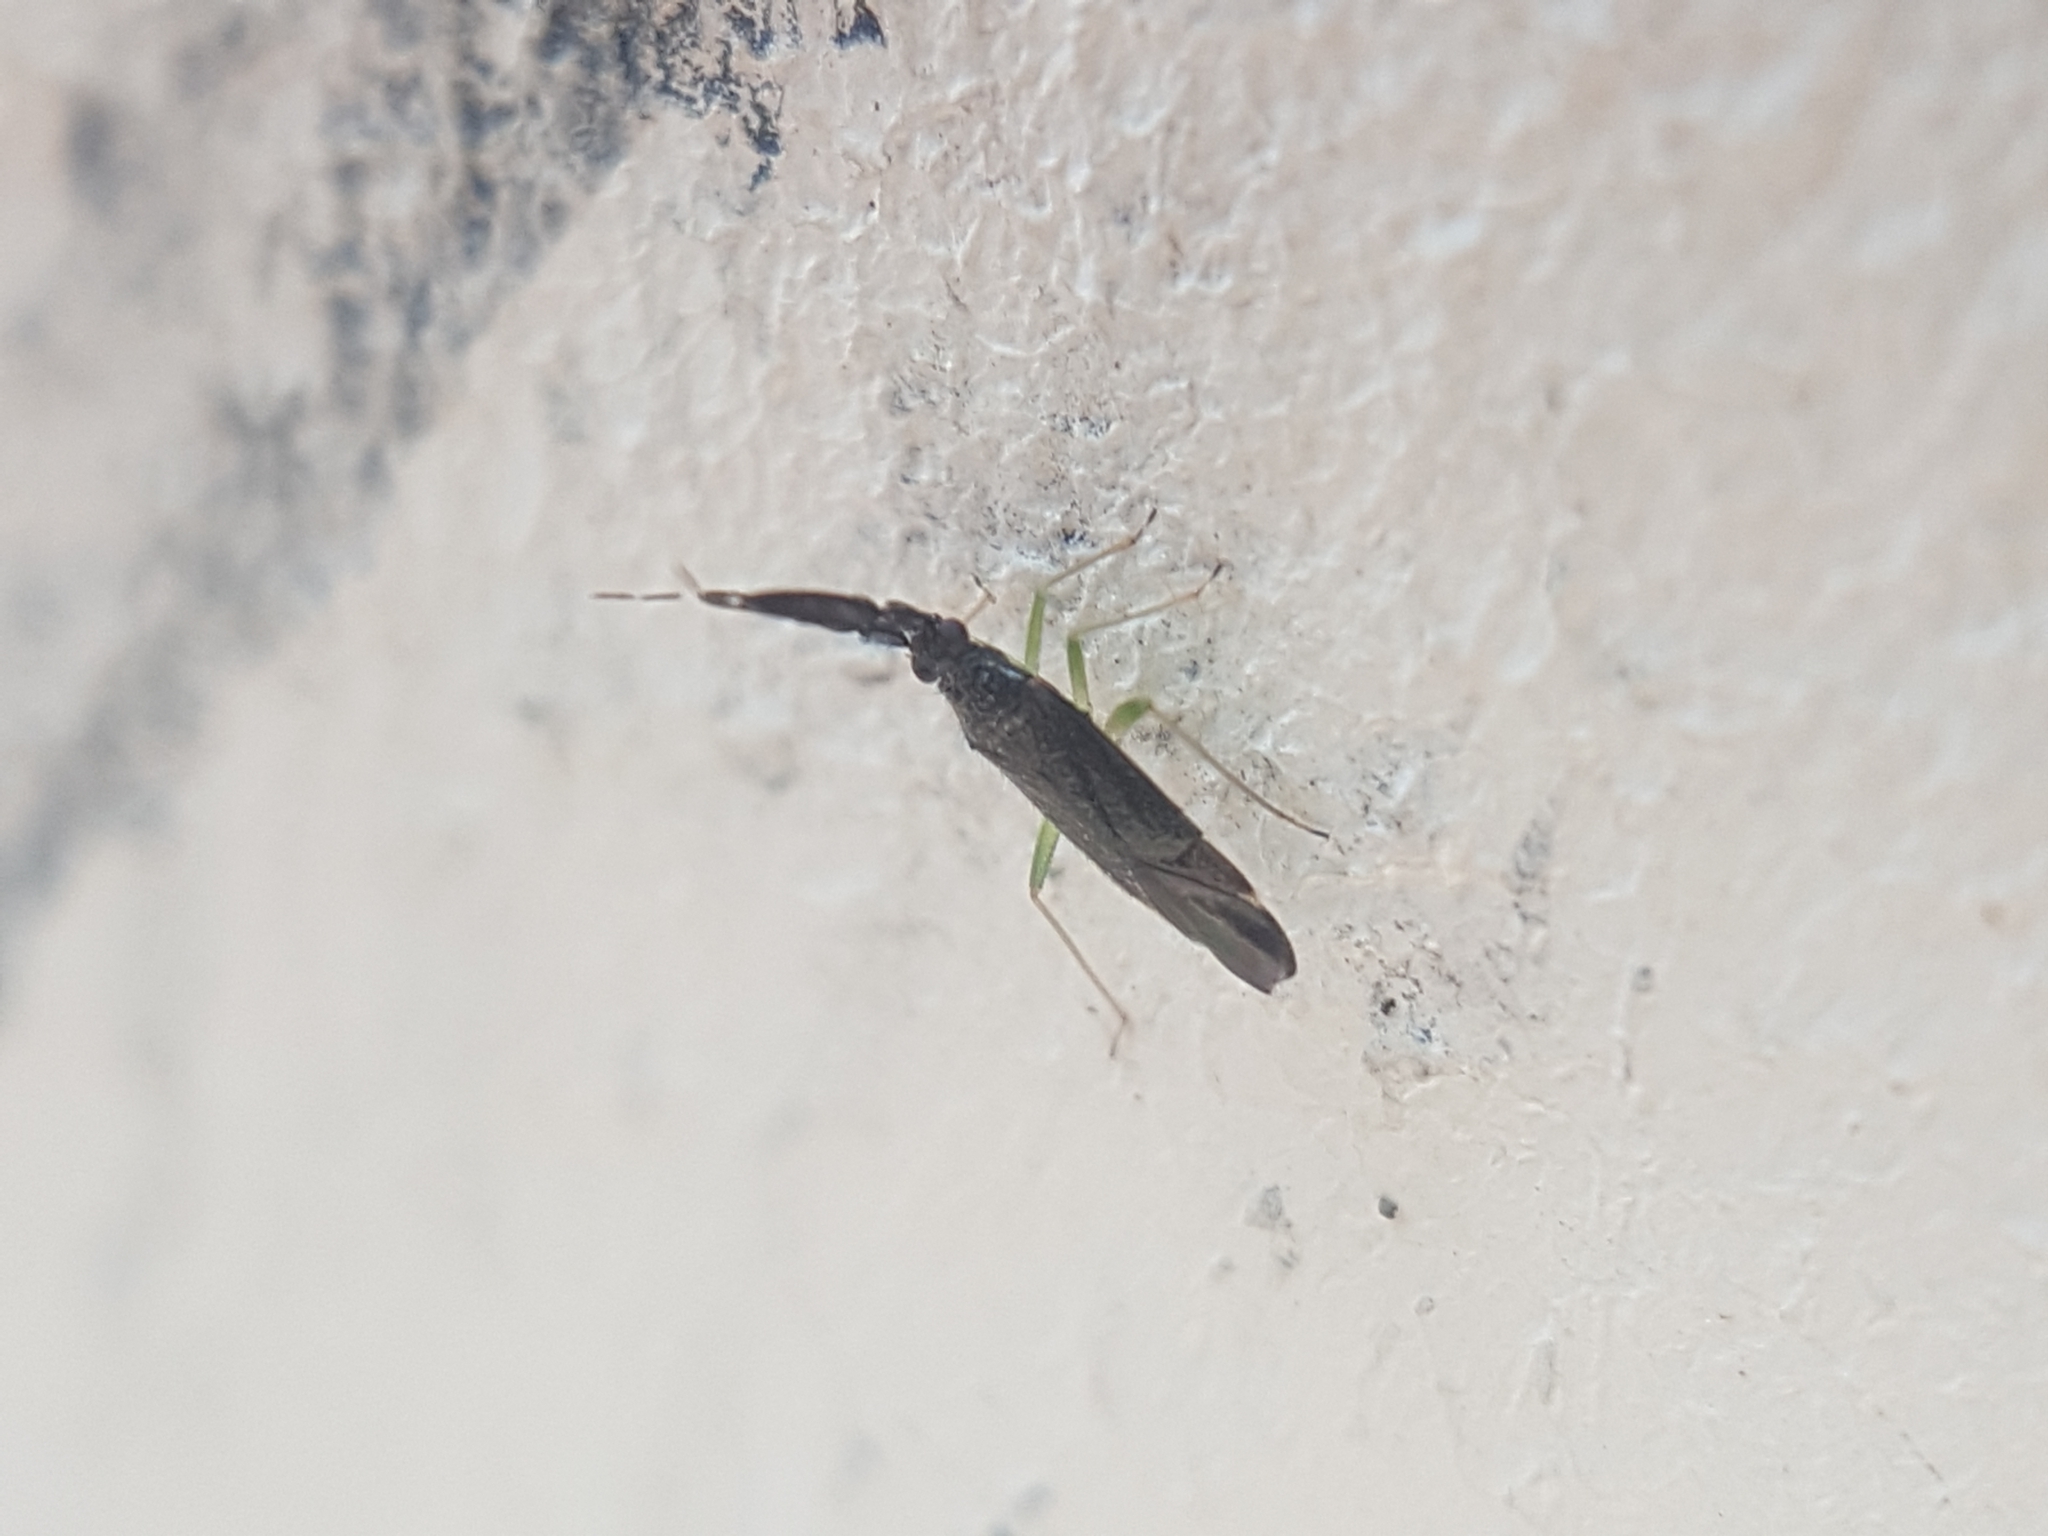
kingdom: Animalia
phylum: Arthropoda
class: Insecta
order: Hemiptera
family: Miridae
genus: Heterotoma
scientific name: Heterotoma planicornis
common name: Plant bug
